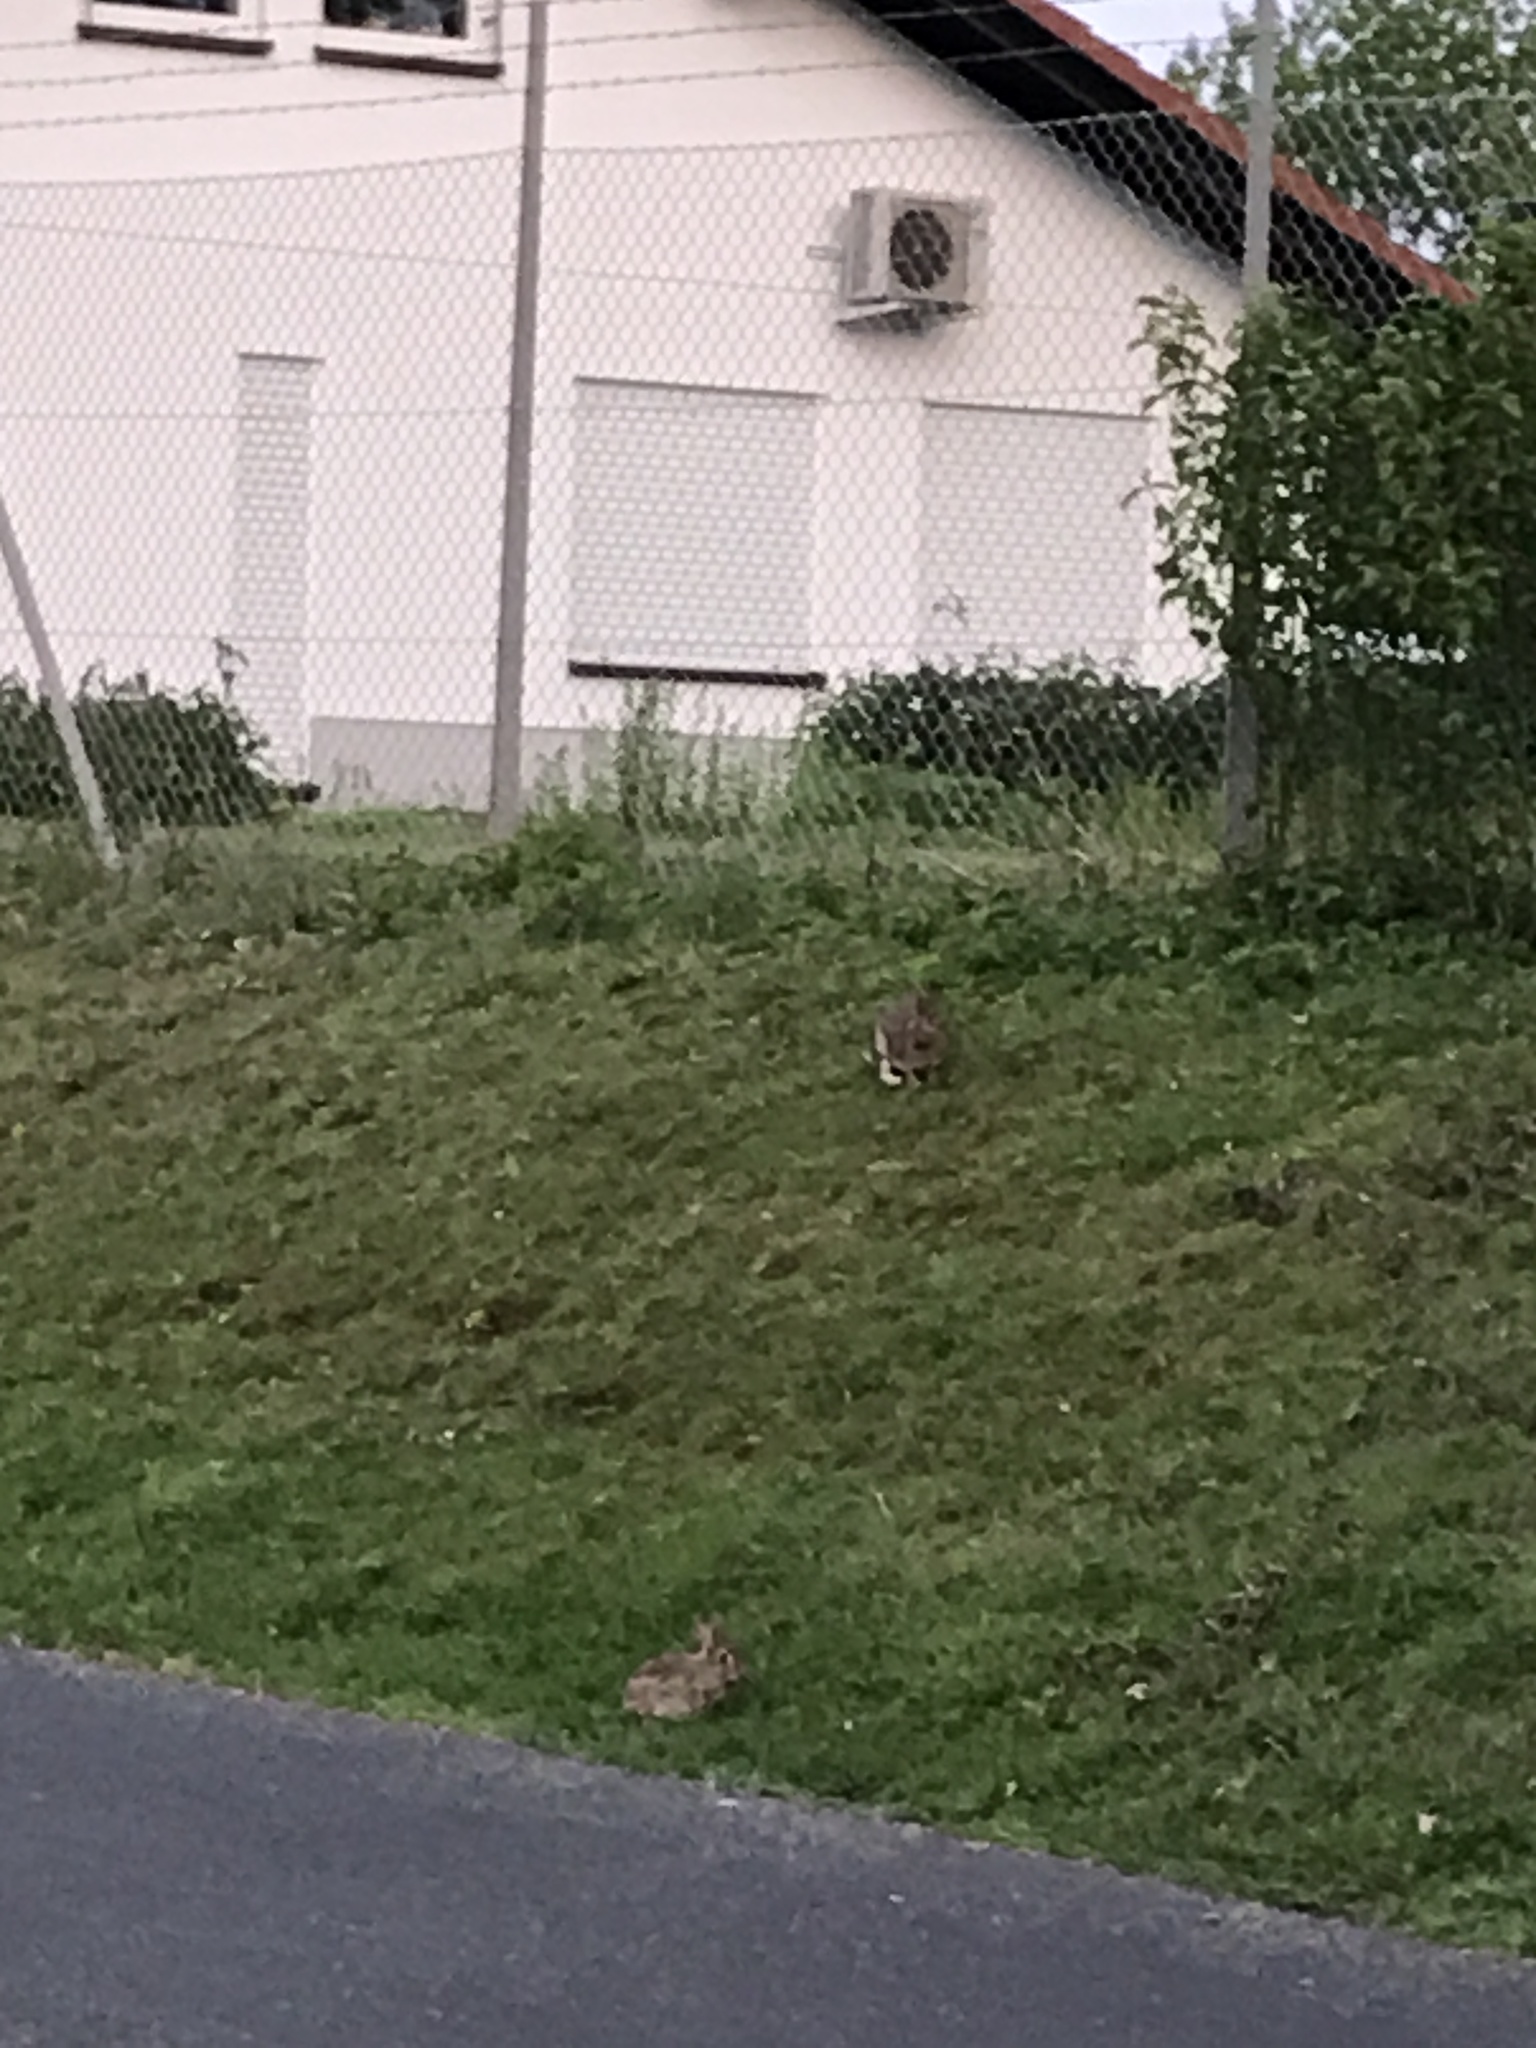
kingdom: Animalia
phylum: Chordata
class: Mammalia
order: Lagomorpha
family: Leporidae
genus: Oryctolagus
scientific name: Oryctolagus cuniculus
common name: European rabbit
